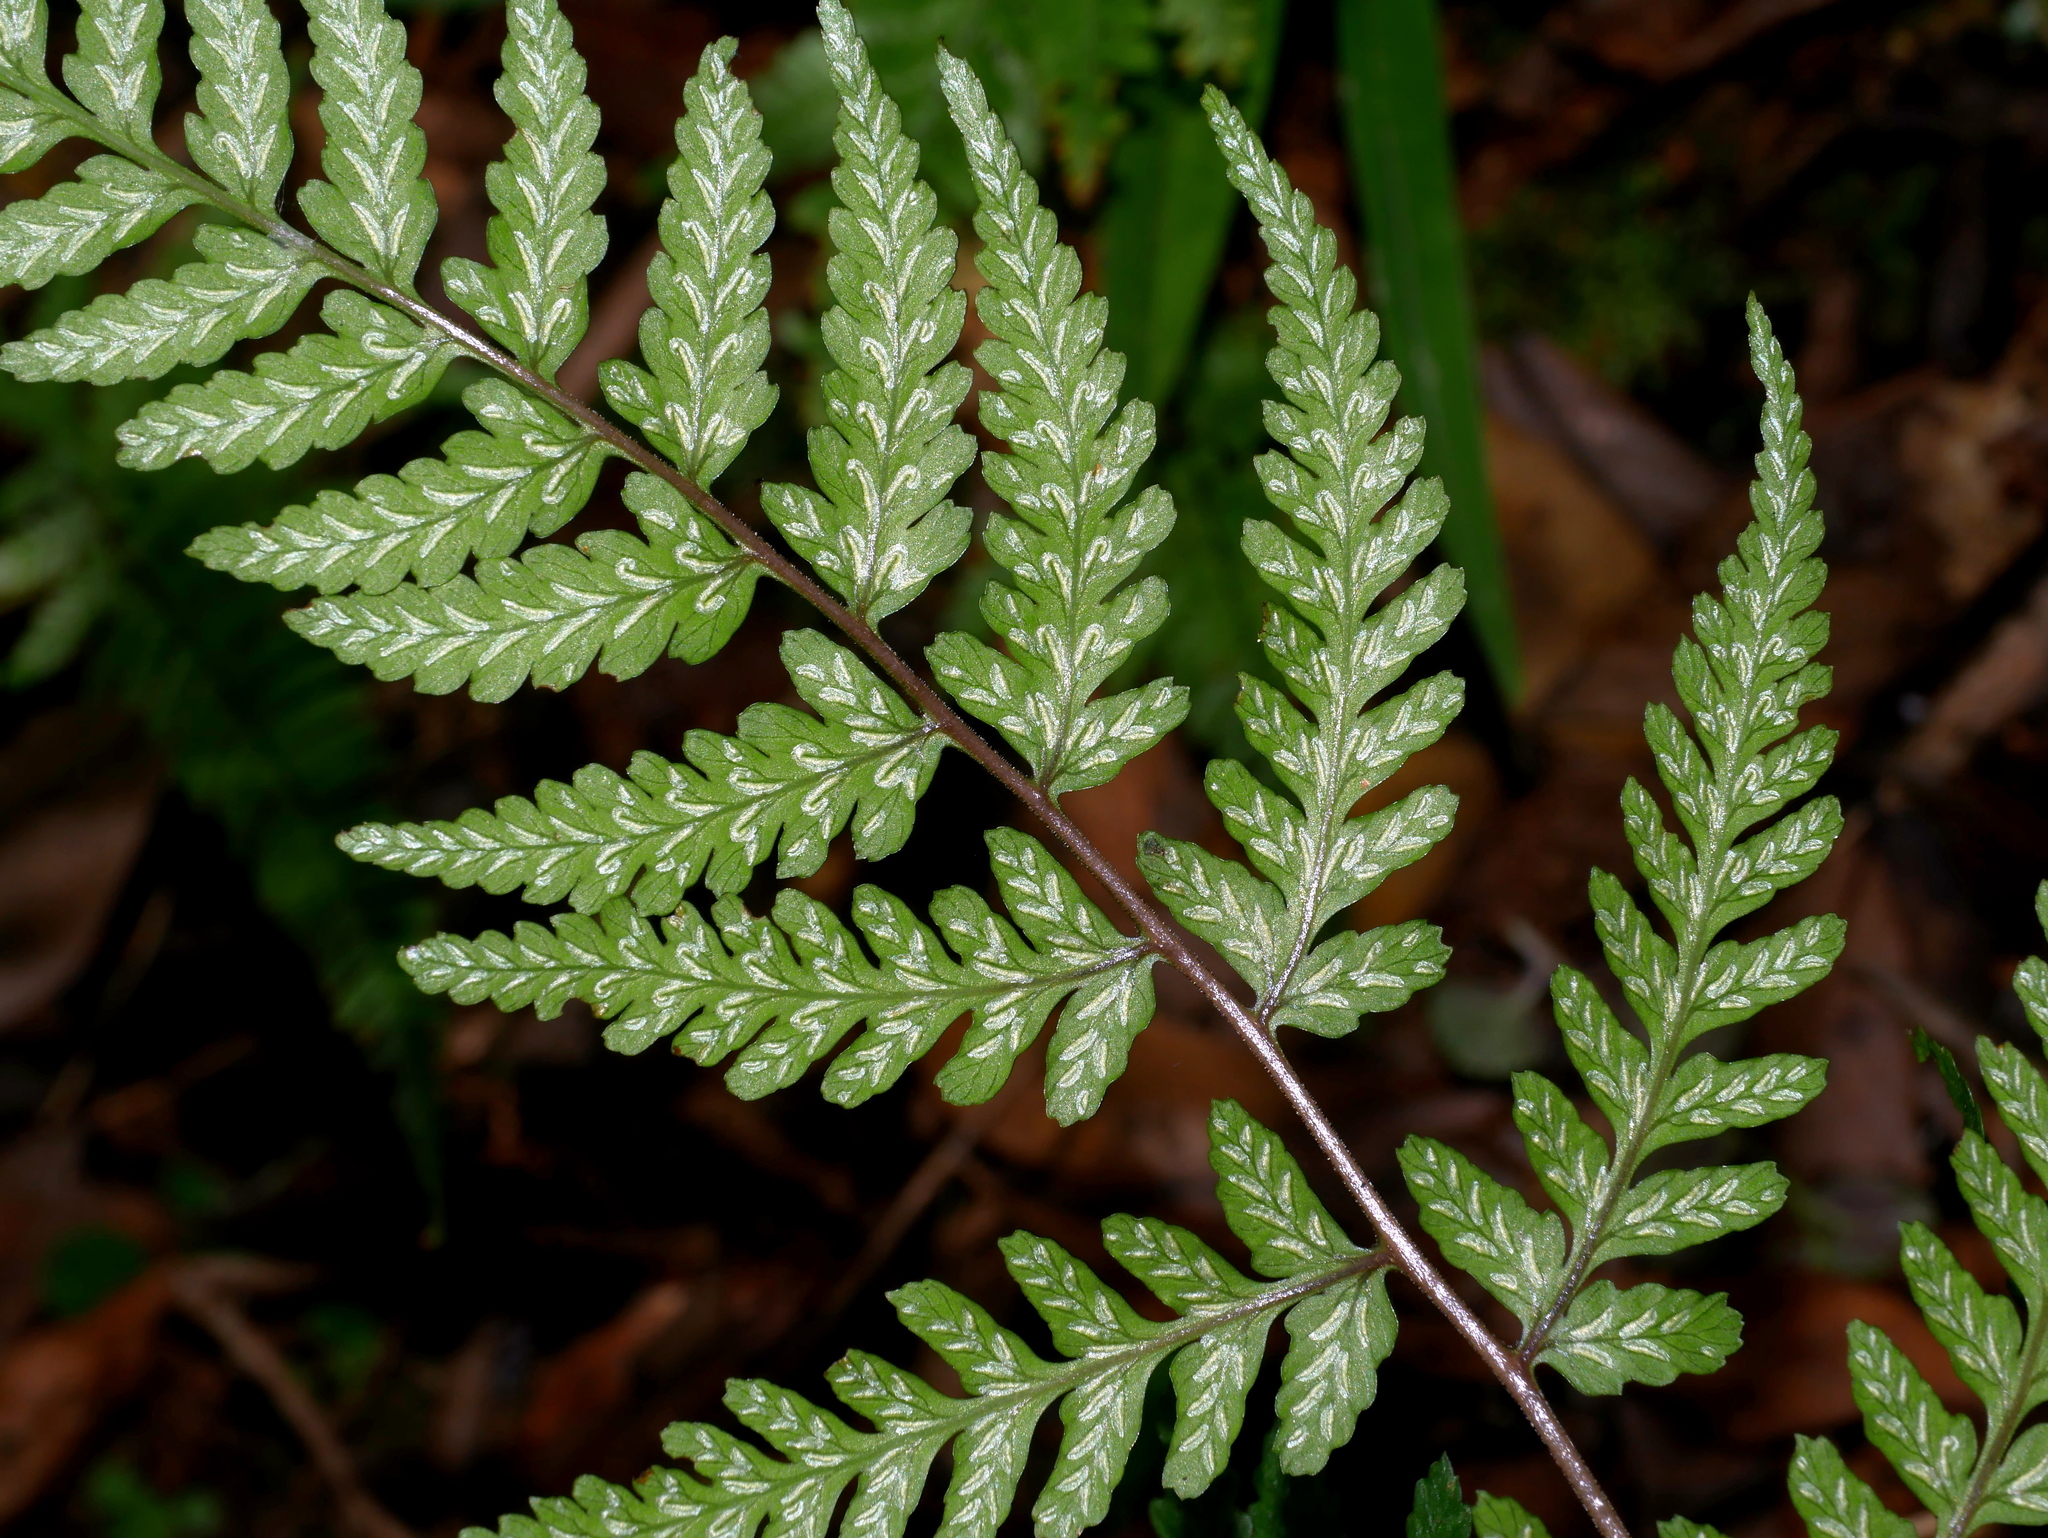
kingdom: Plantae
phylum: Tracheophyta
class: Polypodiopsida
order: Polypodiales
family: Athyriaceae
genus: Athyrium
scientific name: Athyrium arisanense
